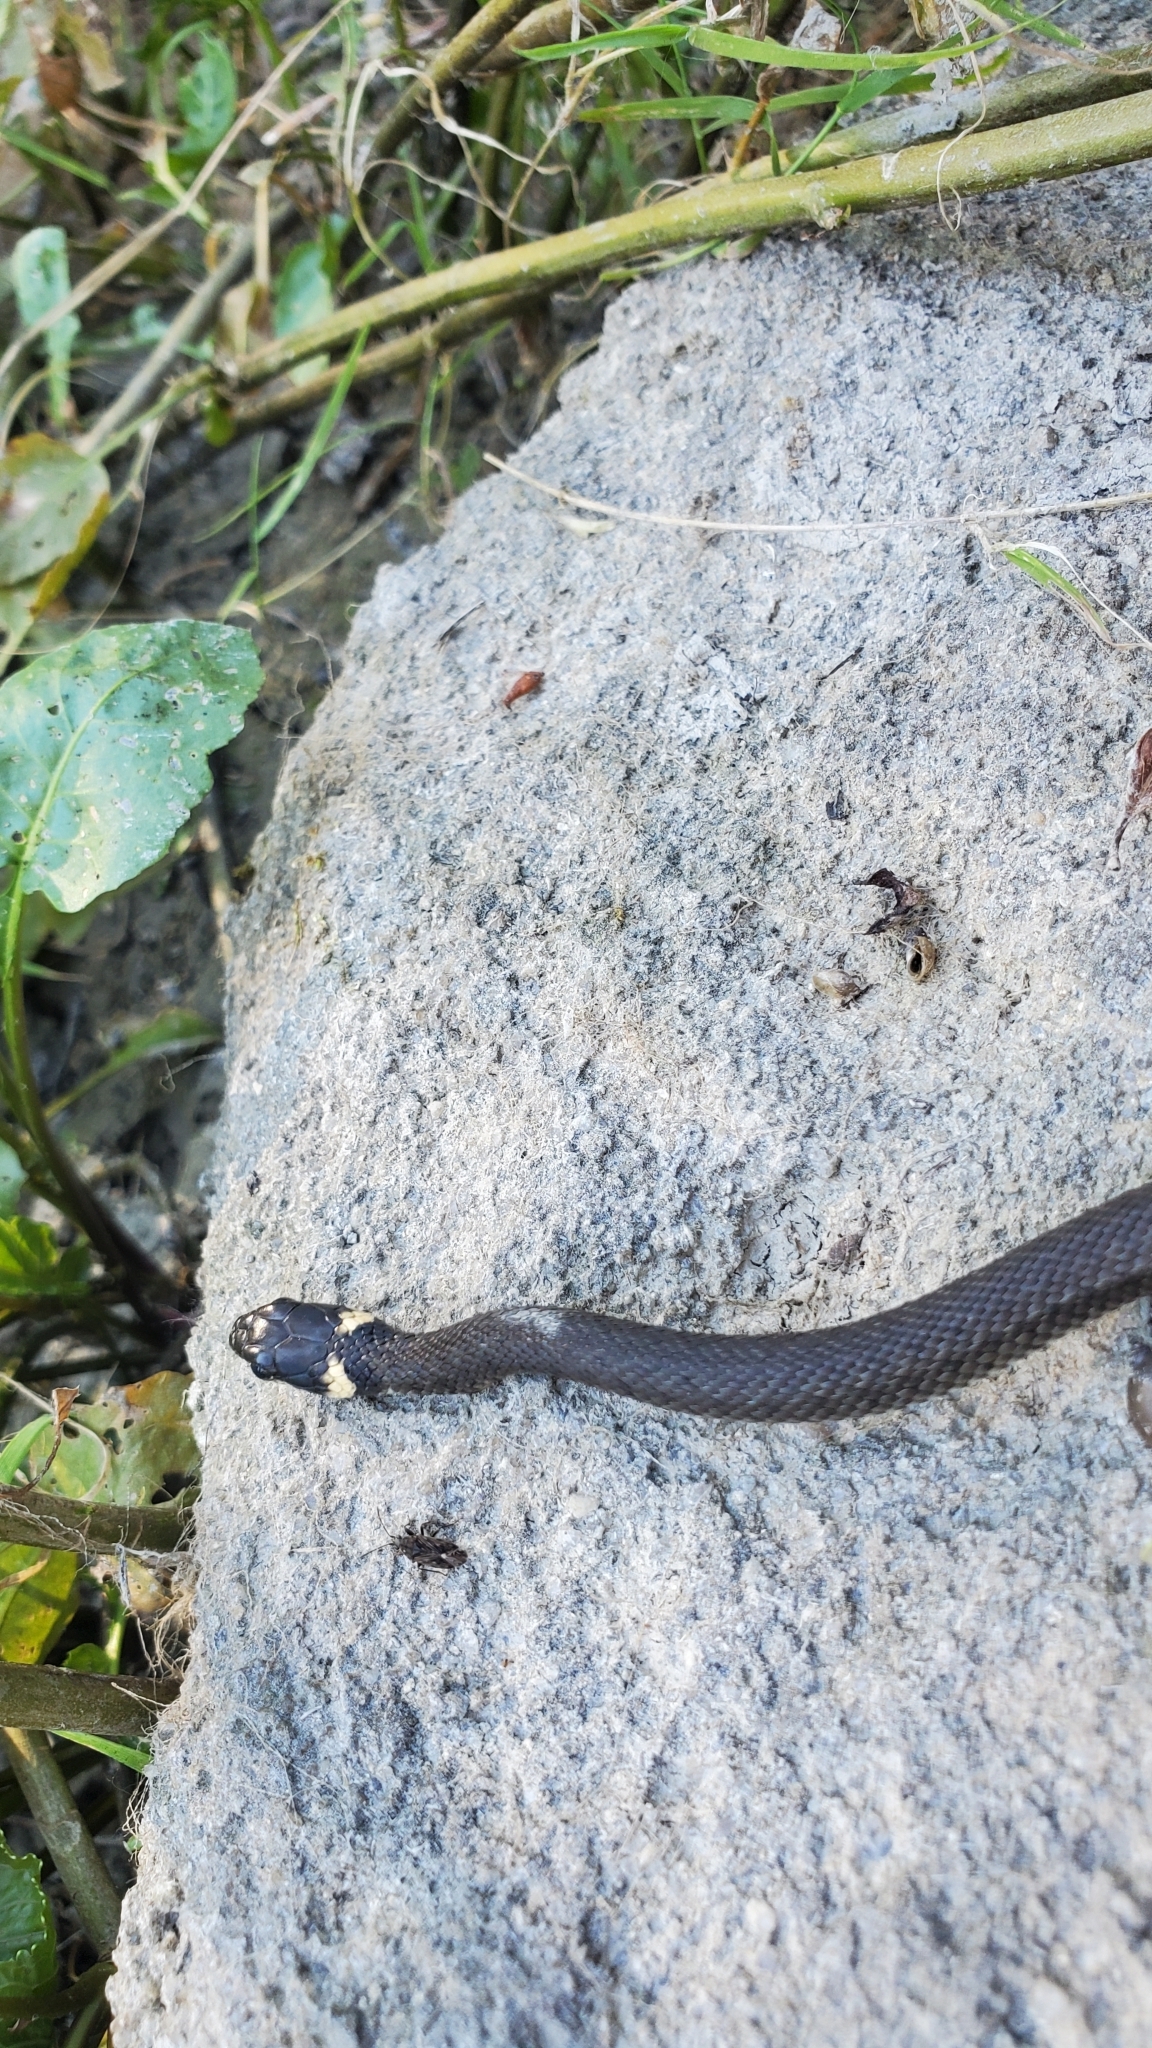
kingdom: Animalia
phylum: Chordata
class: Squamata
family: Colubridae
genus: Natrix
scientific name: Natrix natrix
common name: Grass snake
